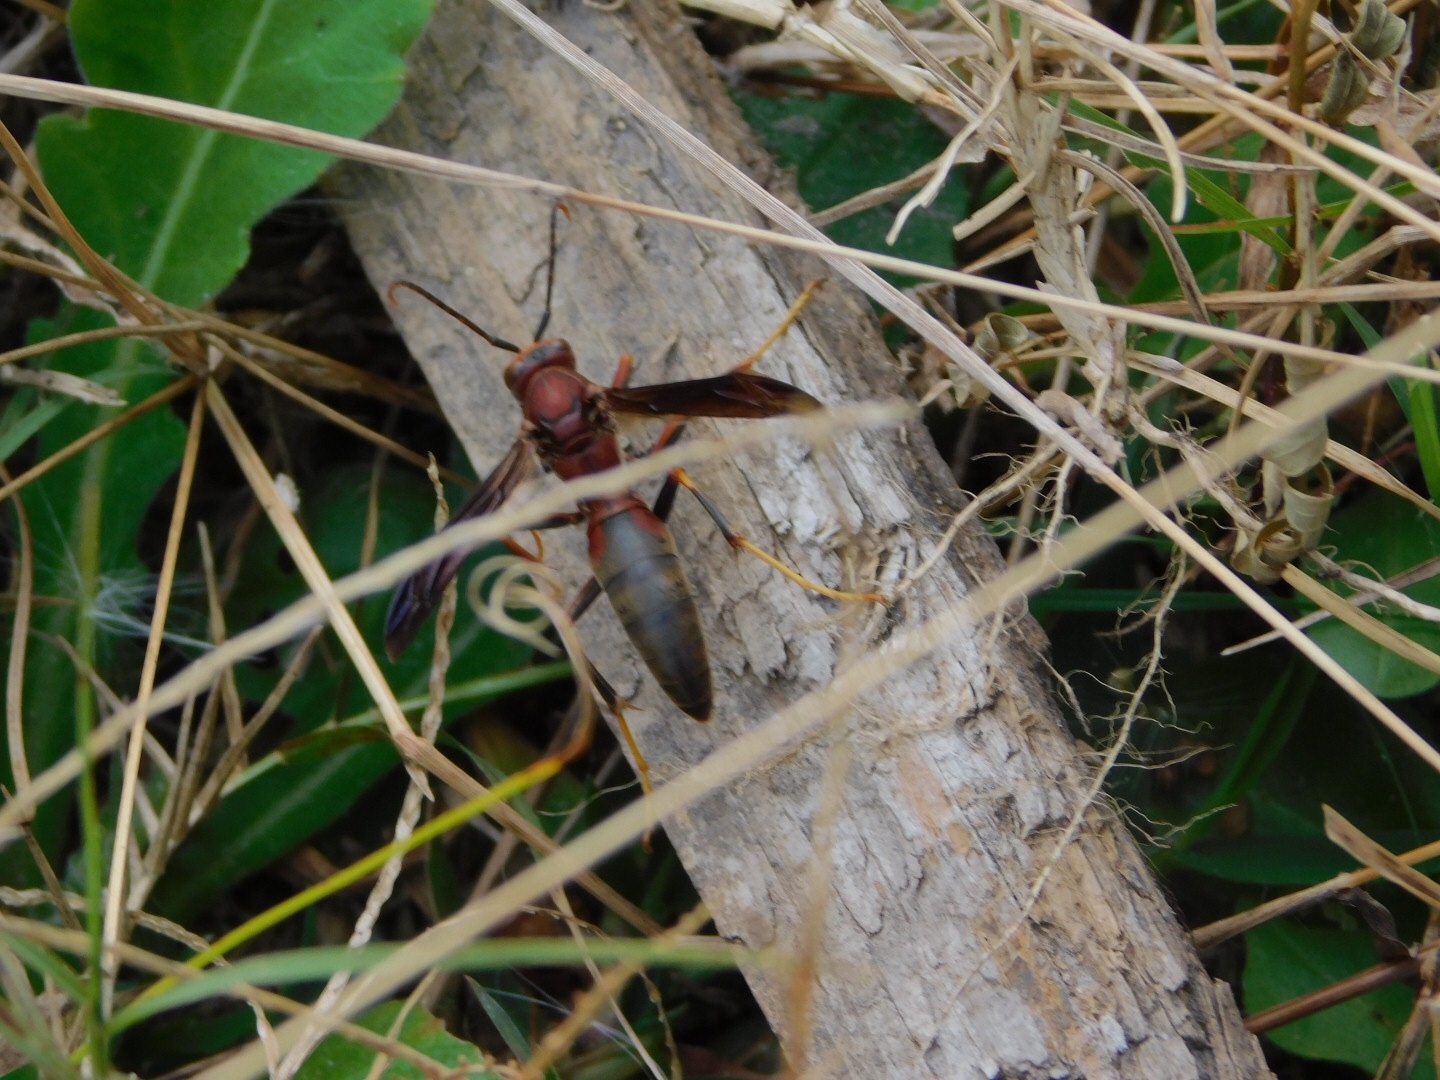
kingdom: Animalia
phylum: Arthropoda
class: Insecta
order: Hymenoptera
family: Eumenidae
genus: Polistes
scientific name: Polistes metricus
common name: Metric paper wasp
